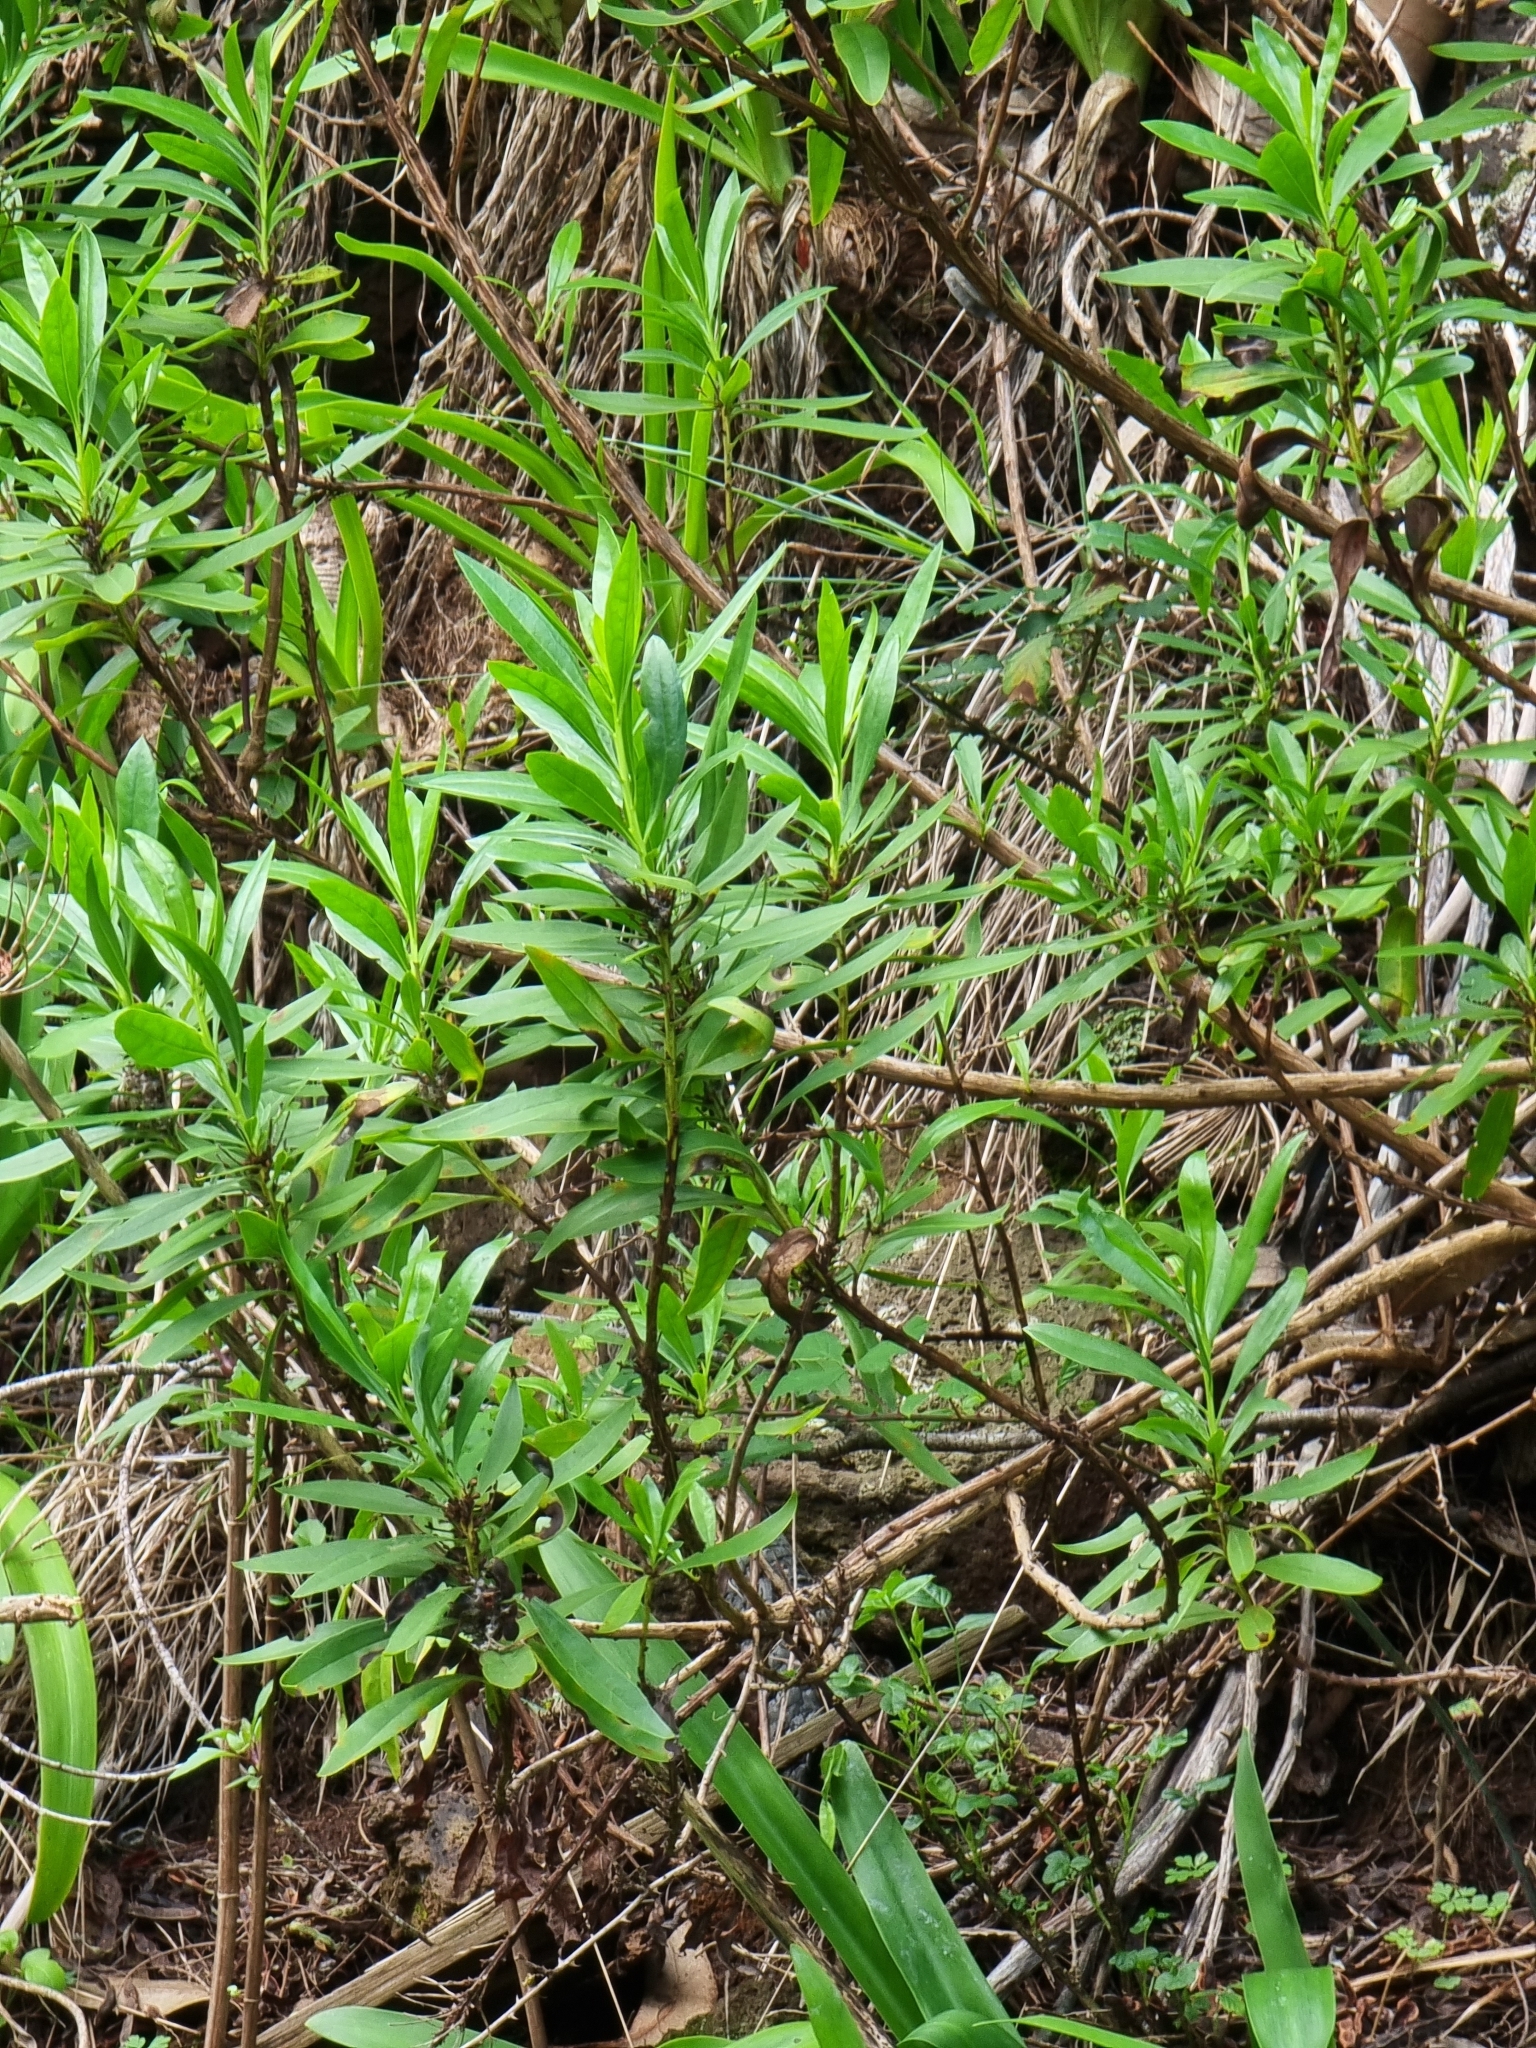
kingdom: Plantae
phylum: Tracheophyta
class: Magnoliopsida
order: Lamiales
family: Plantaginaceae
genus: Globularia
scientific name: Globularia salicina
